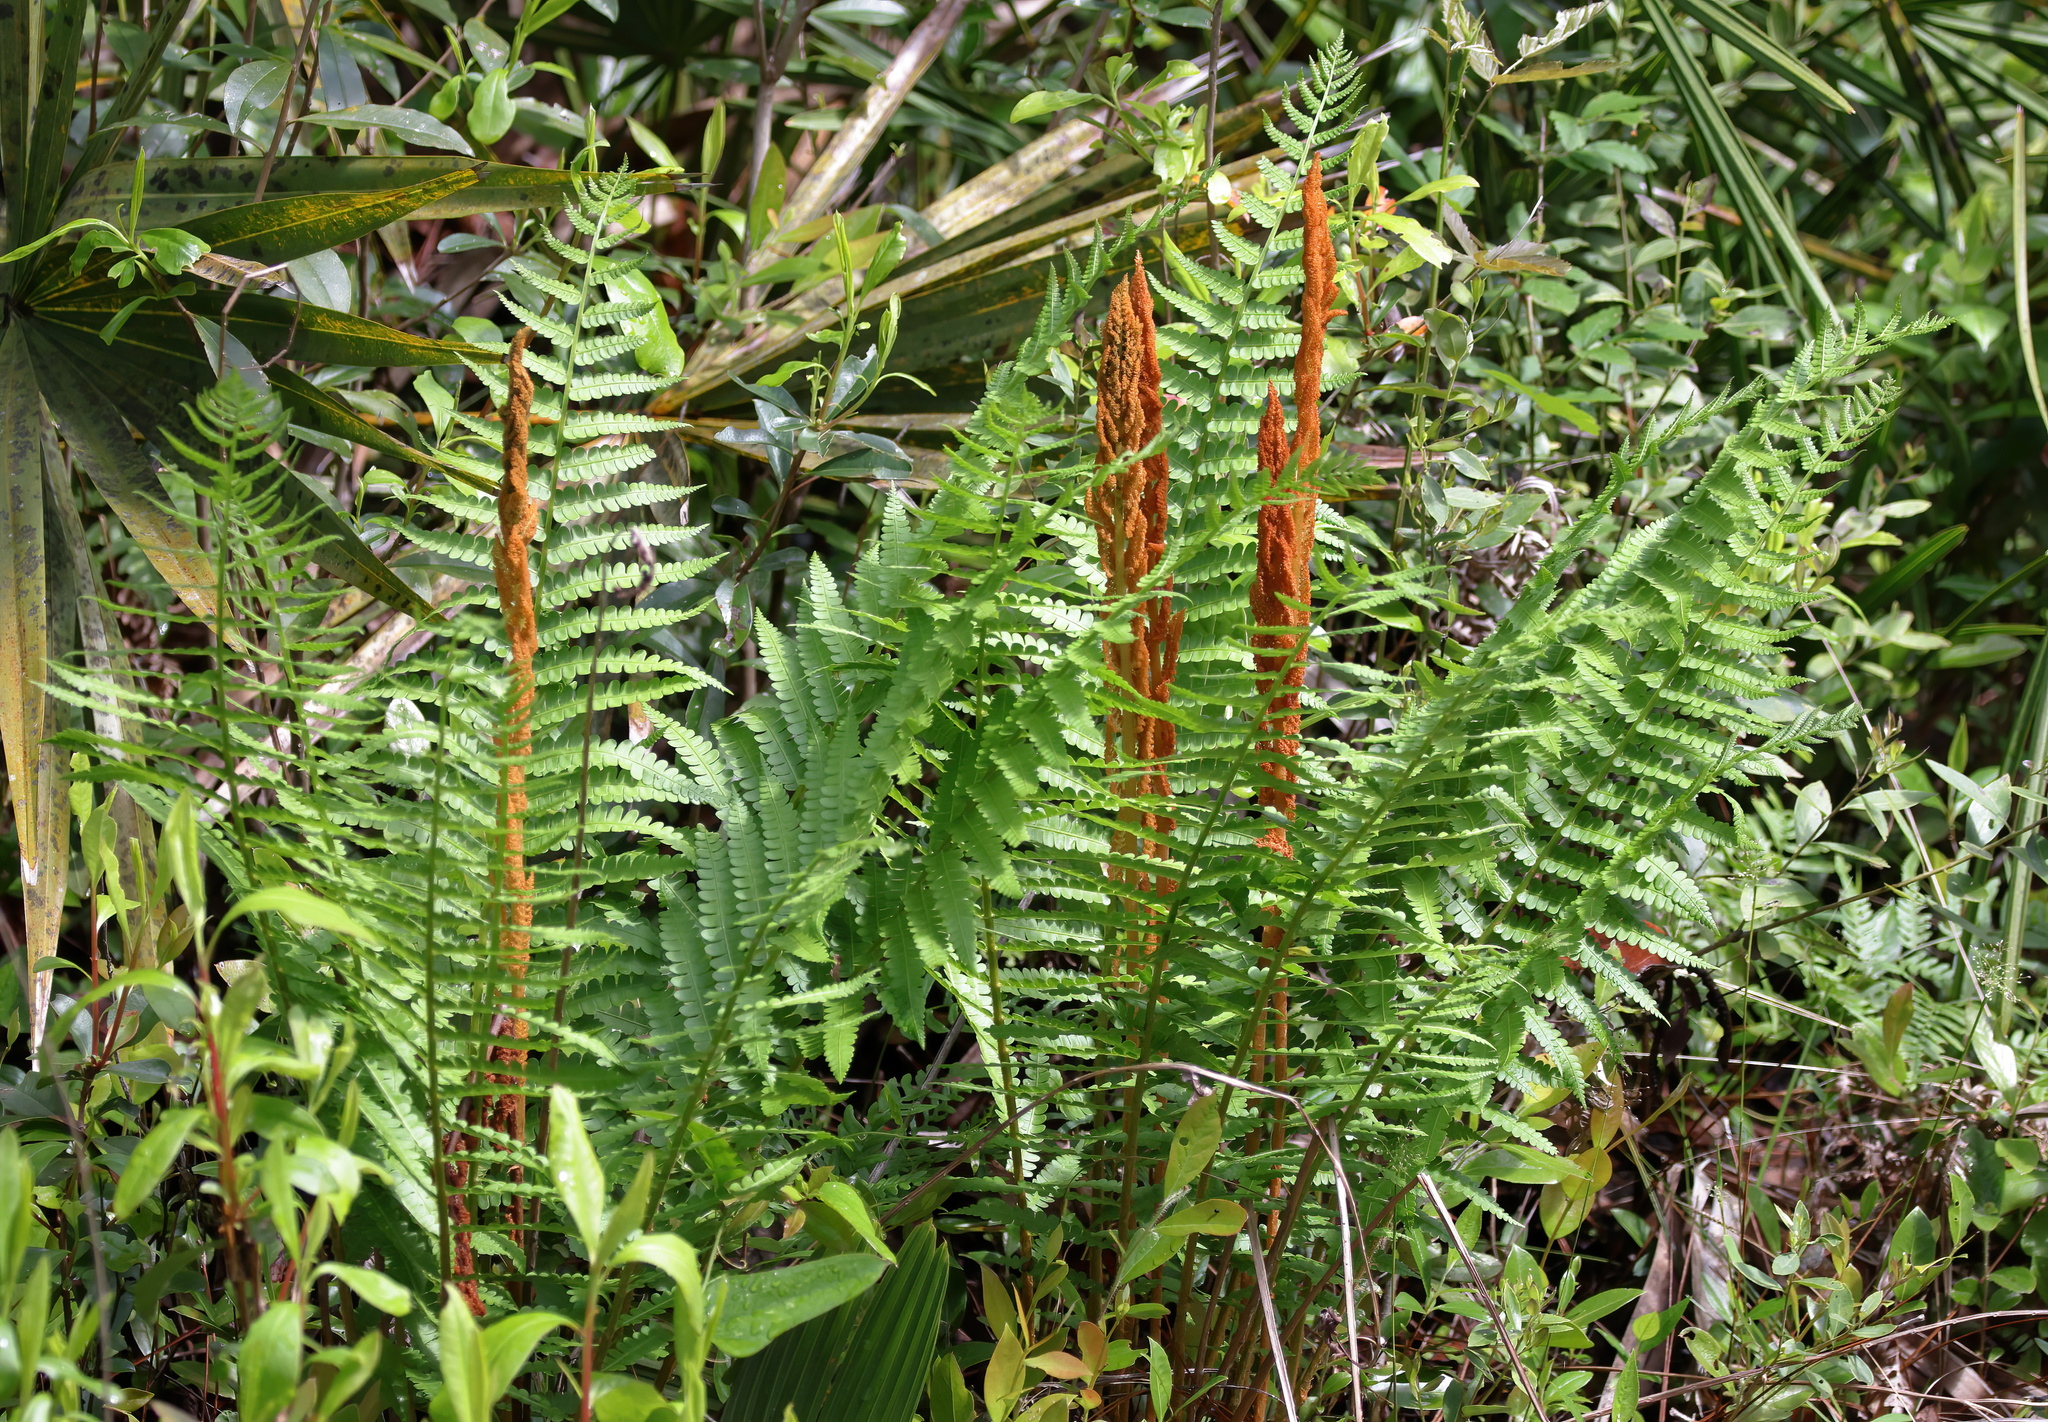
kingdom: Plantae
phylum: Tracheophyta
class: Polypodiopsida
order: Osmundales
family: Osmundaceae
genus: Osmundastrum
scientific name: Osmundastrum cinnamomeum
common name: Cinnamon fern
